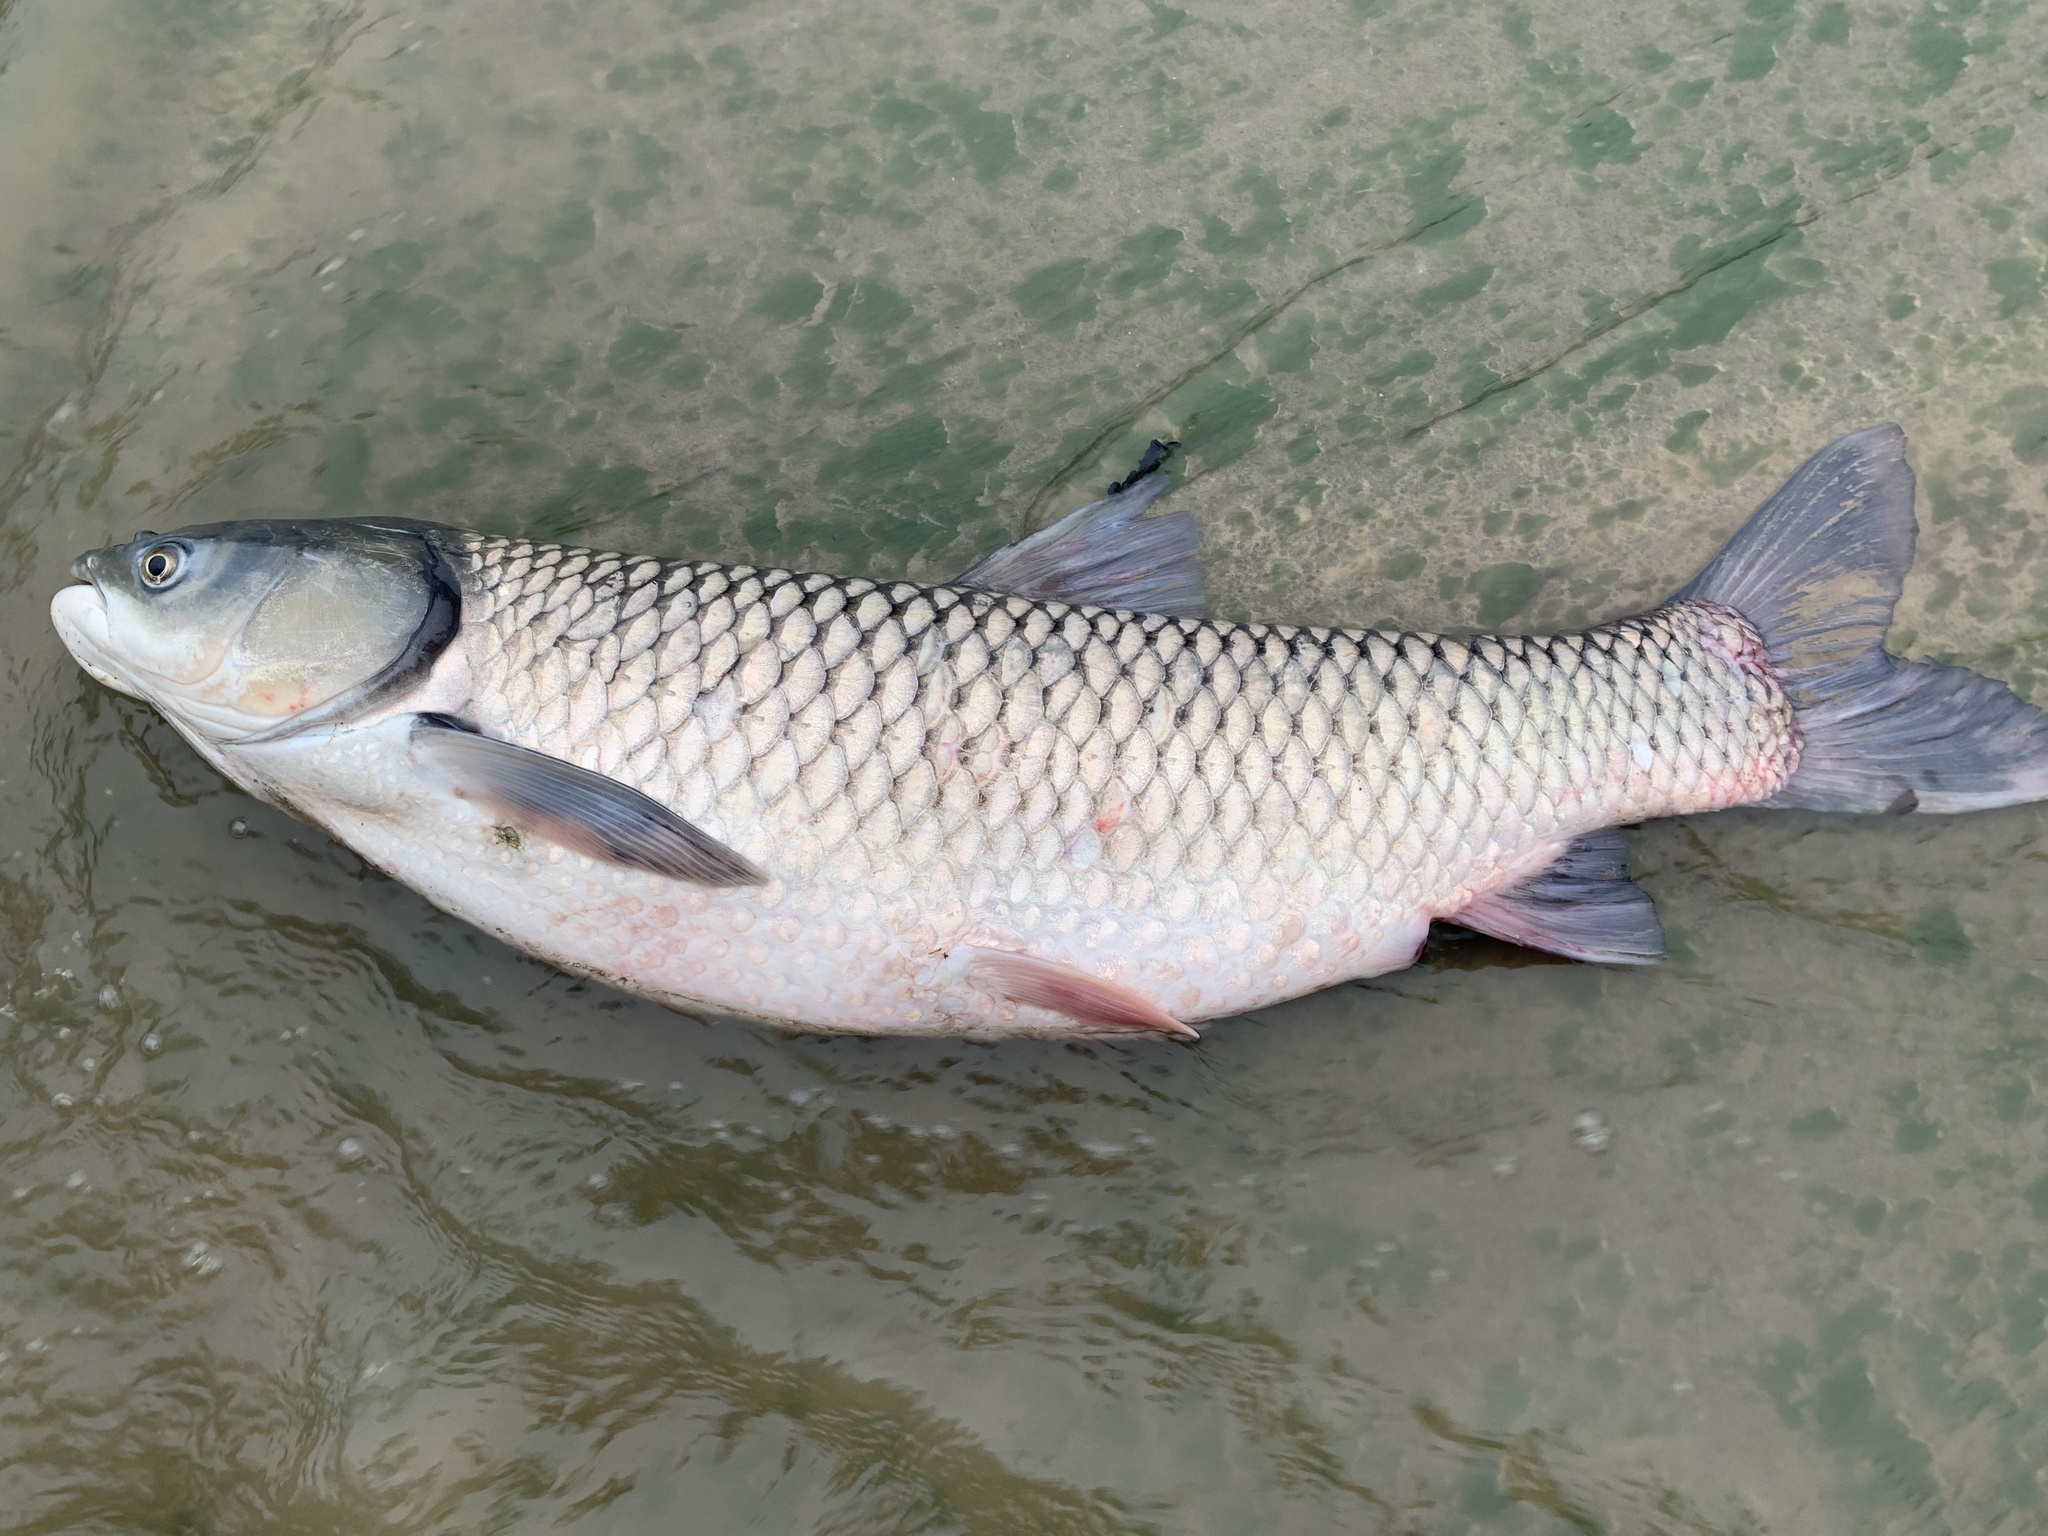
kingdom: Animalia
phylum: Chordata
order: Cypriniformes
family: Cyprinidae
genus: Ctenopharyngodon
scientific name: Ctenopharyngodon idella
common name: Grass carp
